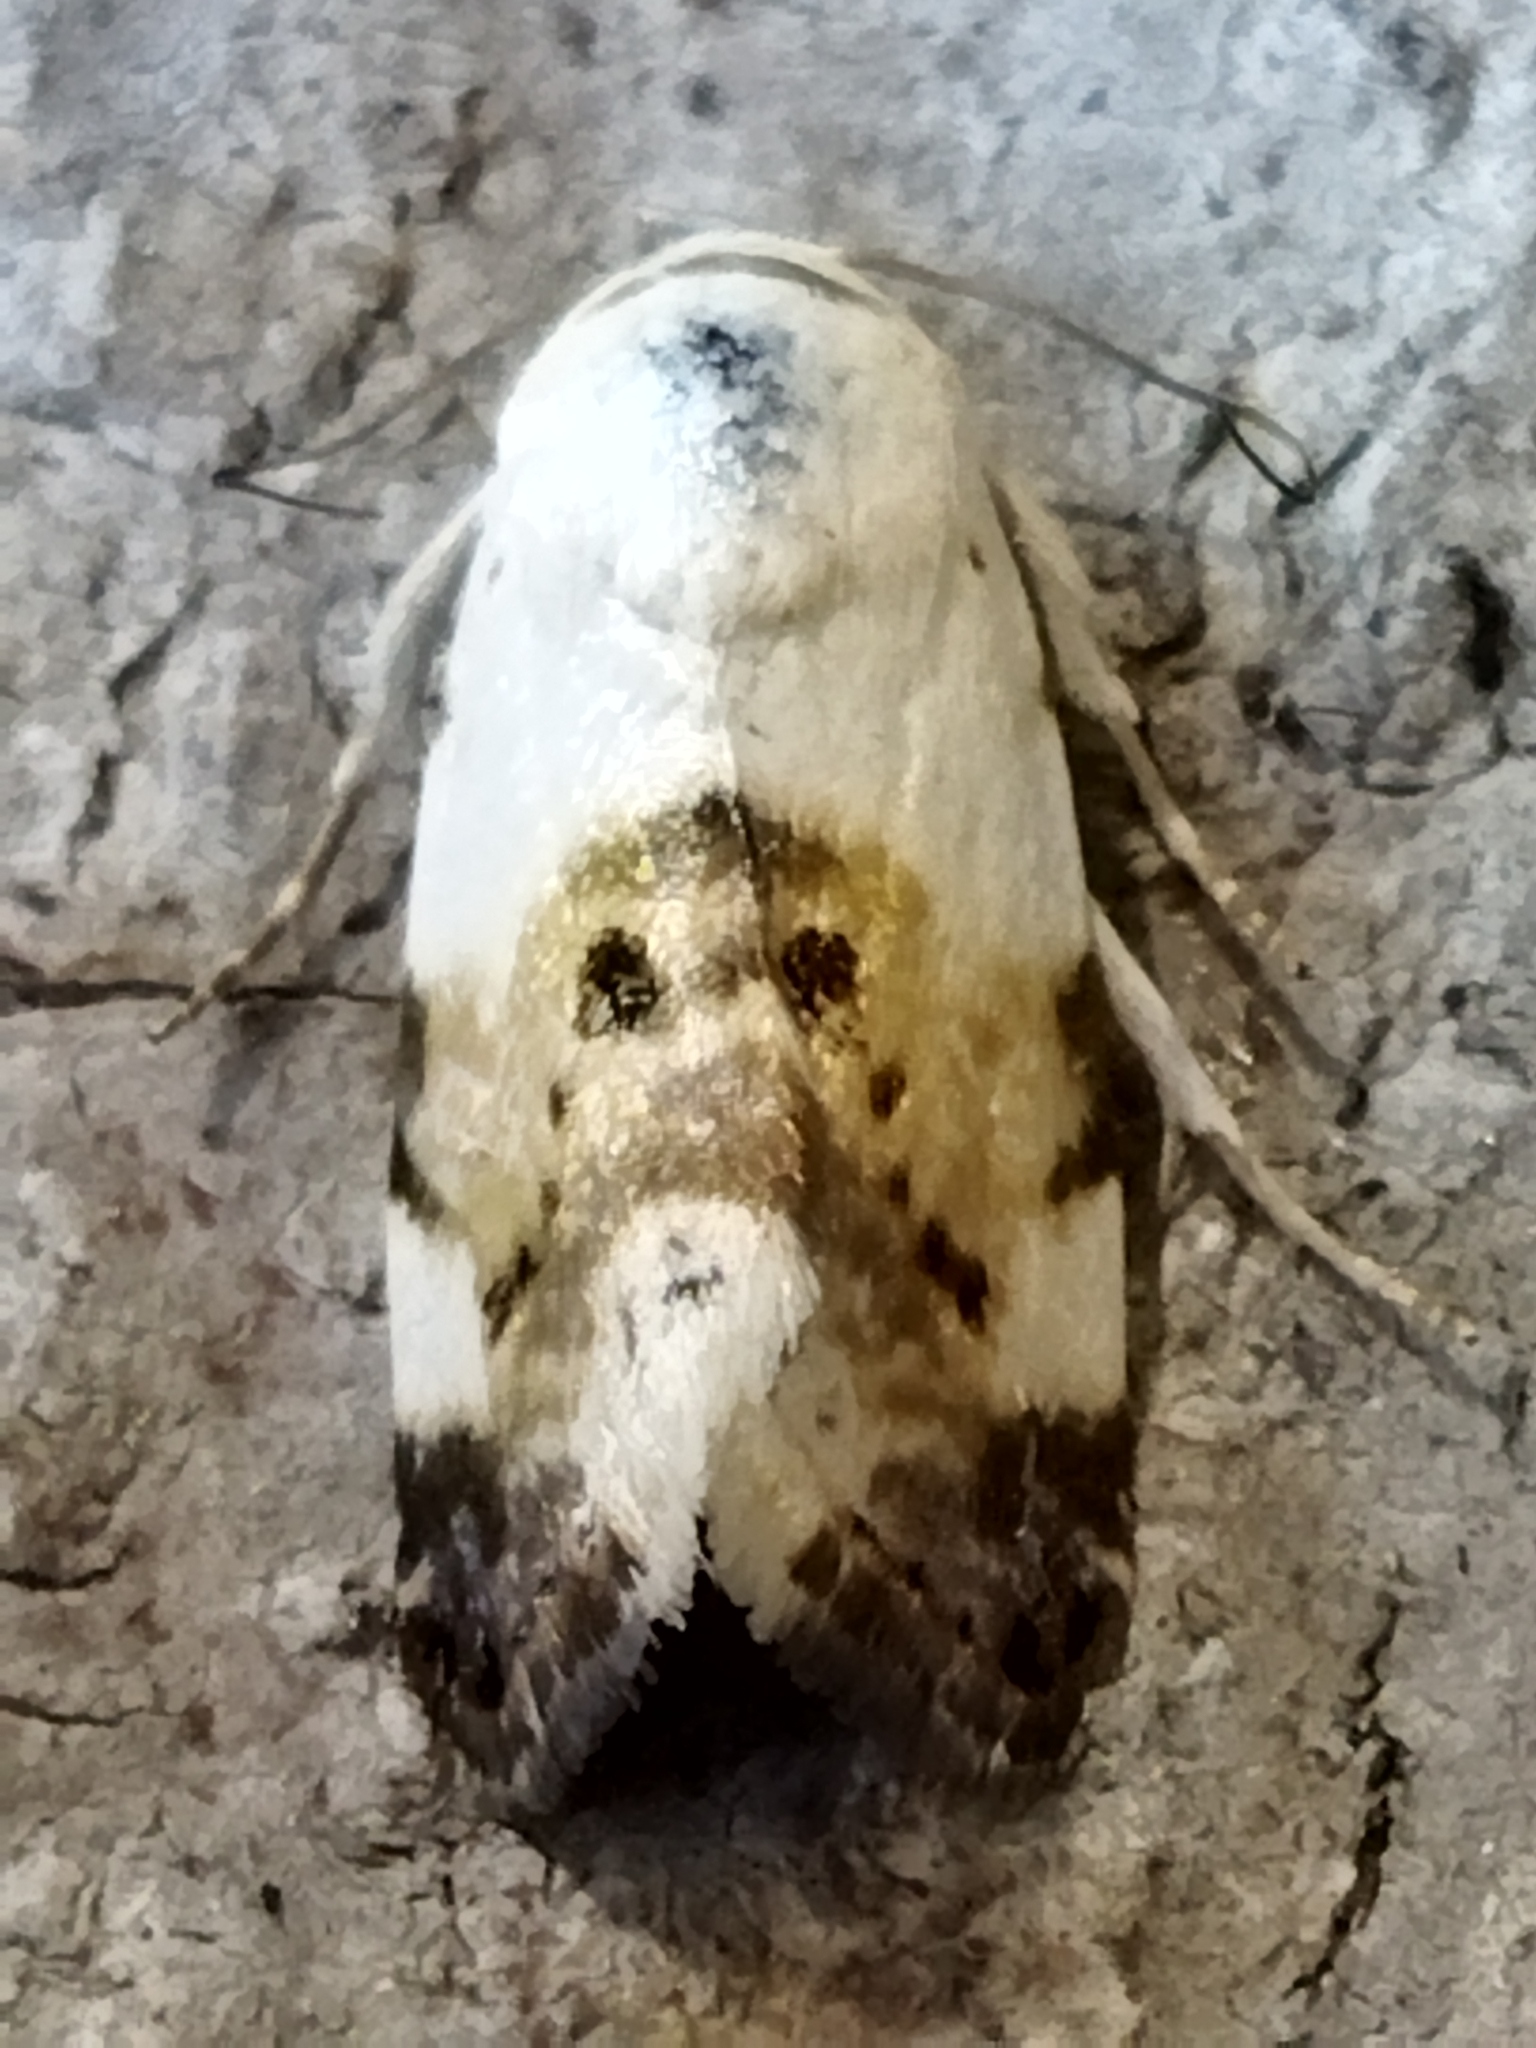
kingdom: Animalia
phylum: Arthropoda
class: Insecta
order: Lepidoptera
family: Noctuidae
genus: Acontia
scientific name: Acontia lucida
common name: Pale shoulder
